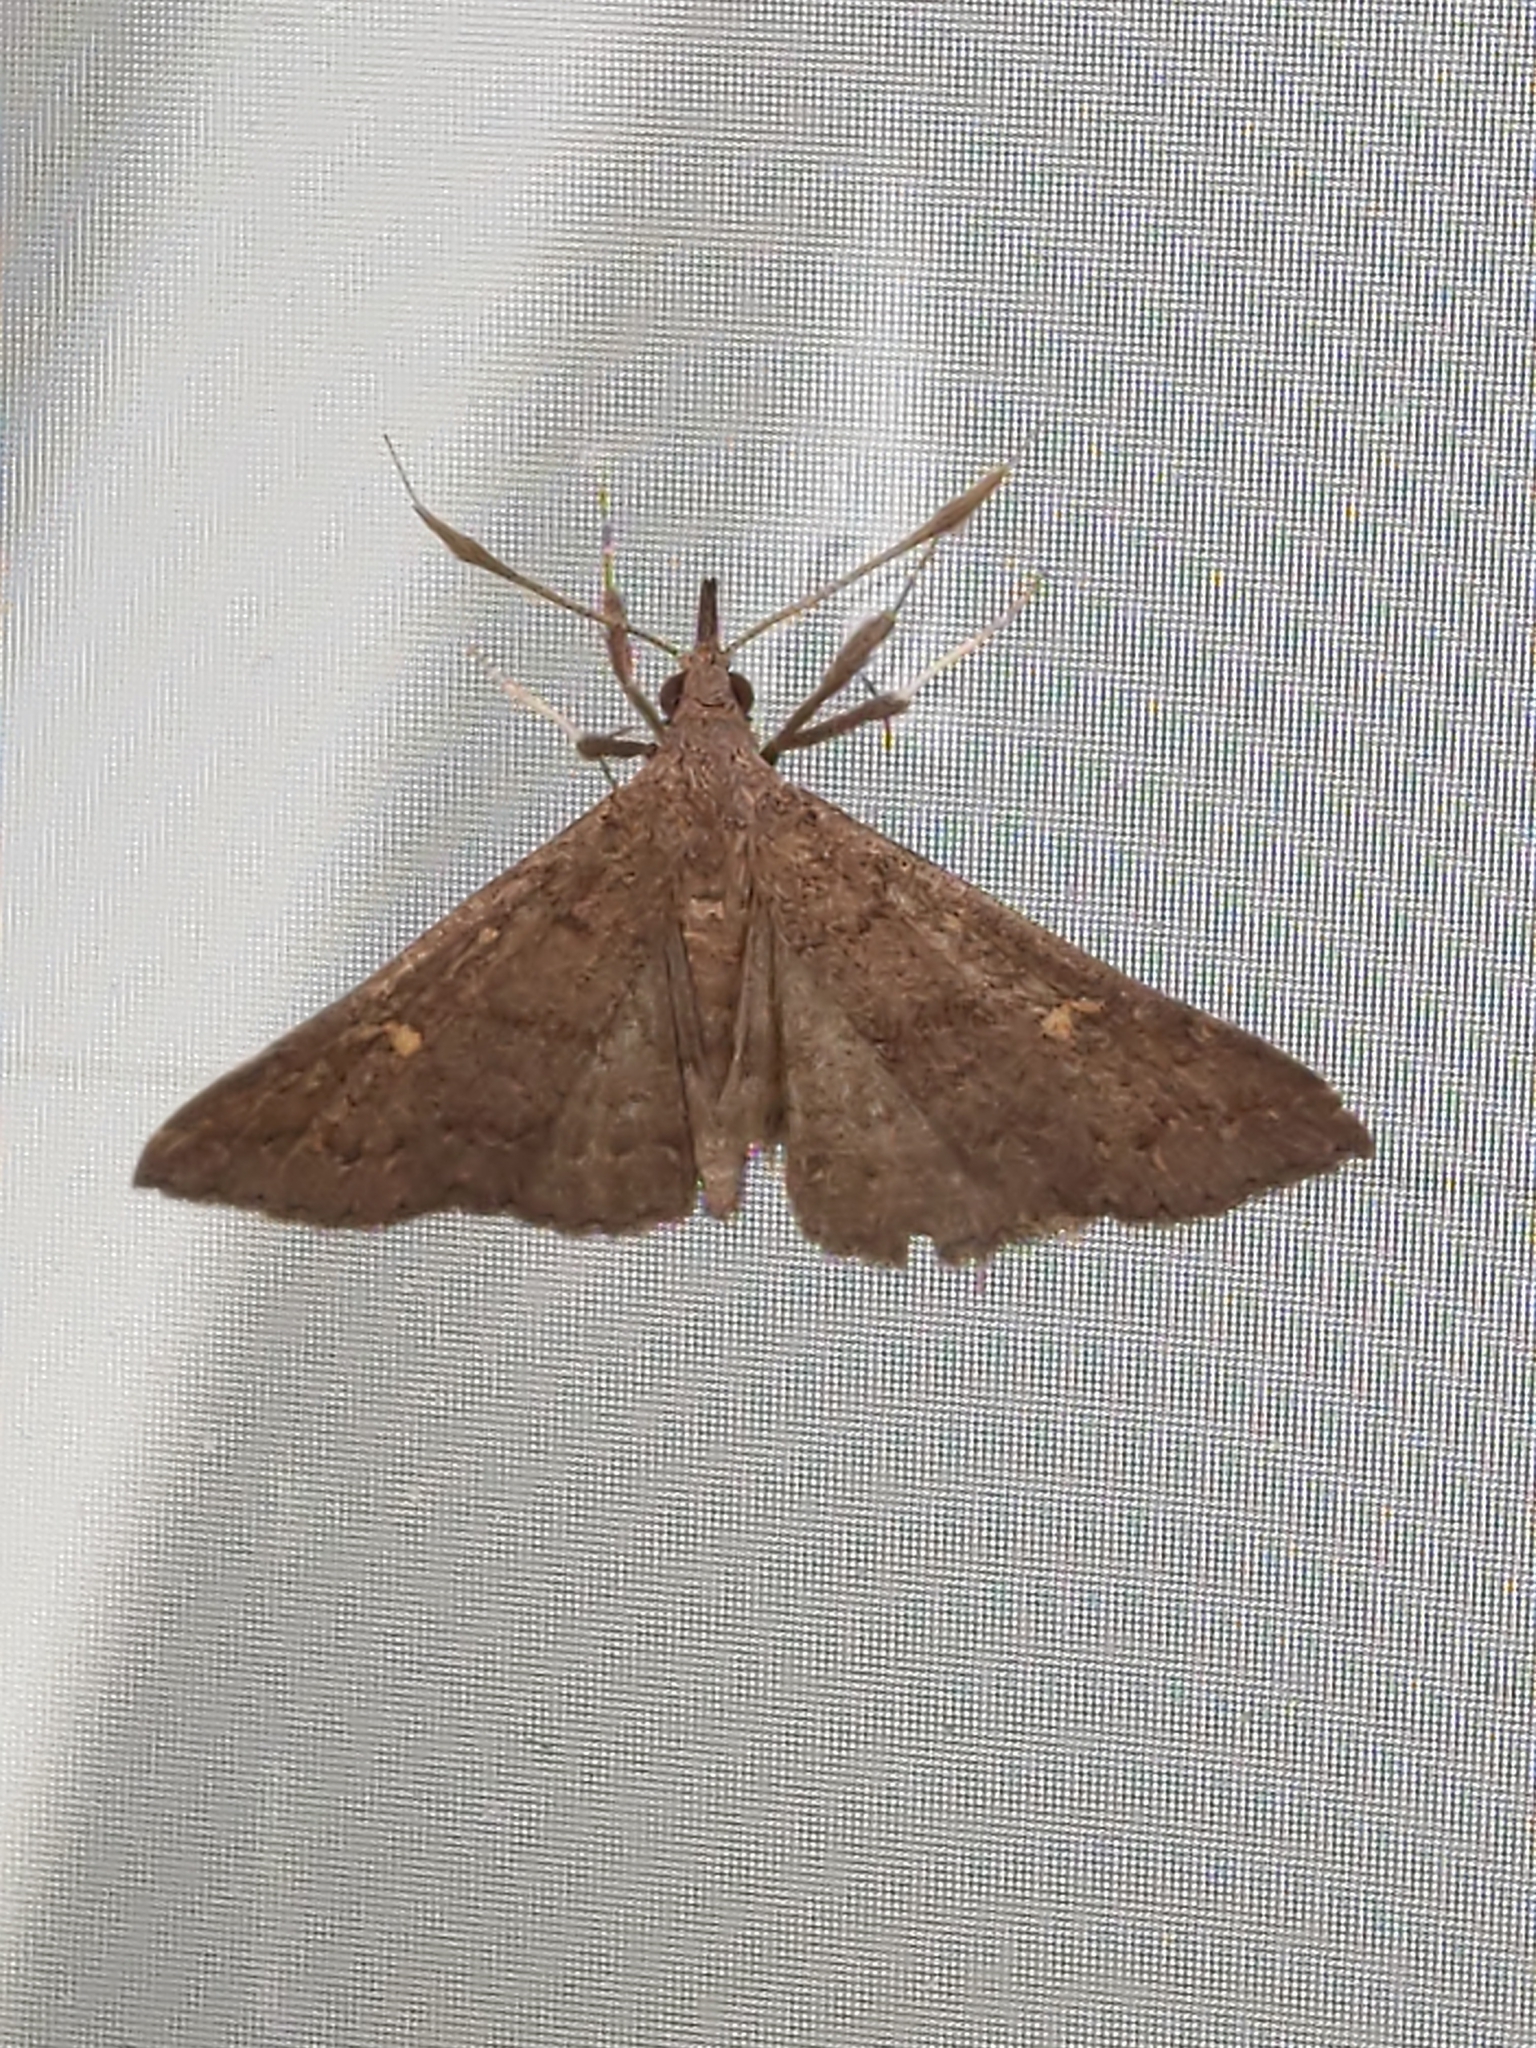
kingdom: Animalia
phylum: Arthropoda
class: Insecta
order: Lepidoptera
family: Erebidae
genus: Renia
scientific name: Renia adspergillus
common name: Speckled renia moth
